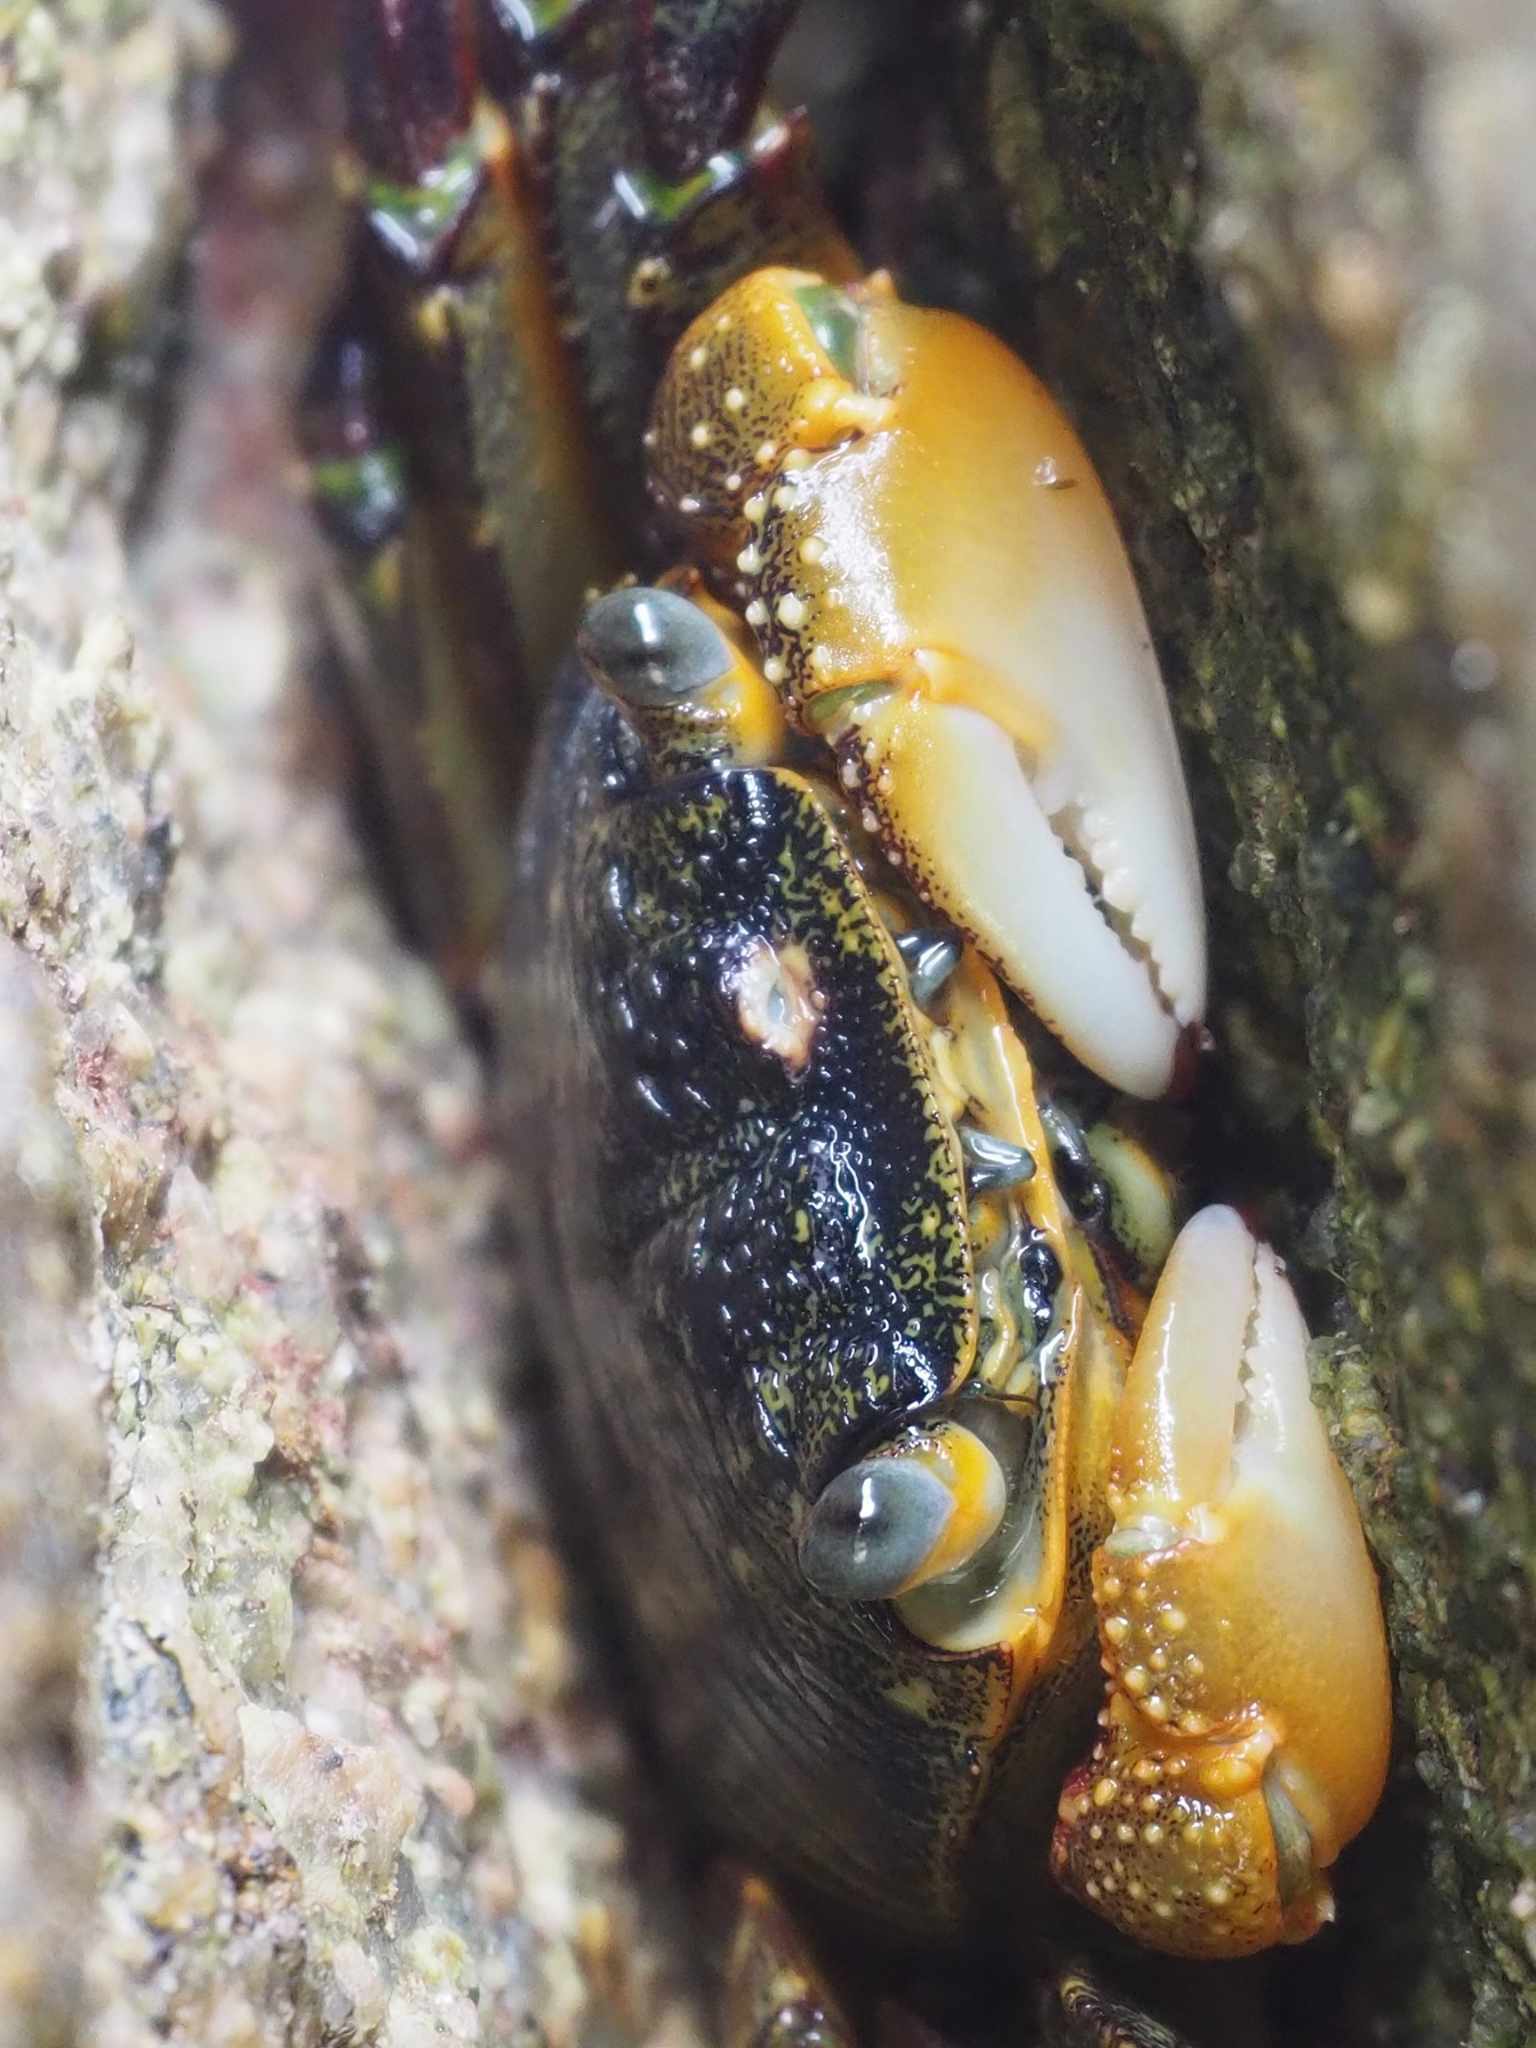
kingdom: Animalia
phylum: Arthropoda
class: Malacostraca
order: Decapoda
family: Grapsidae
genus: Leptograpsus
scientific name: Leptograpsus variegatus
